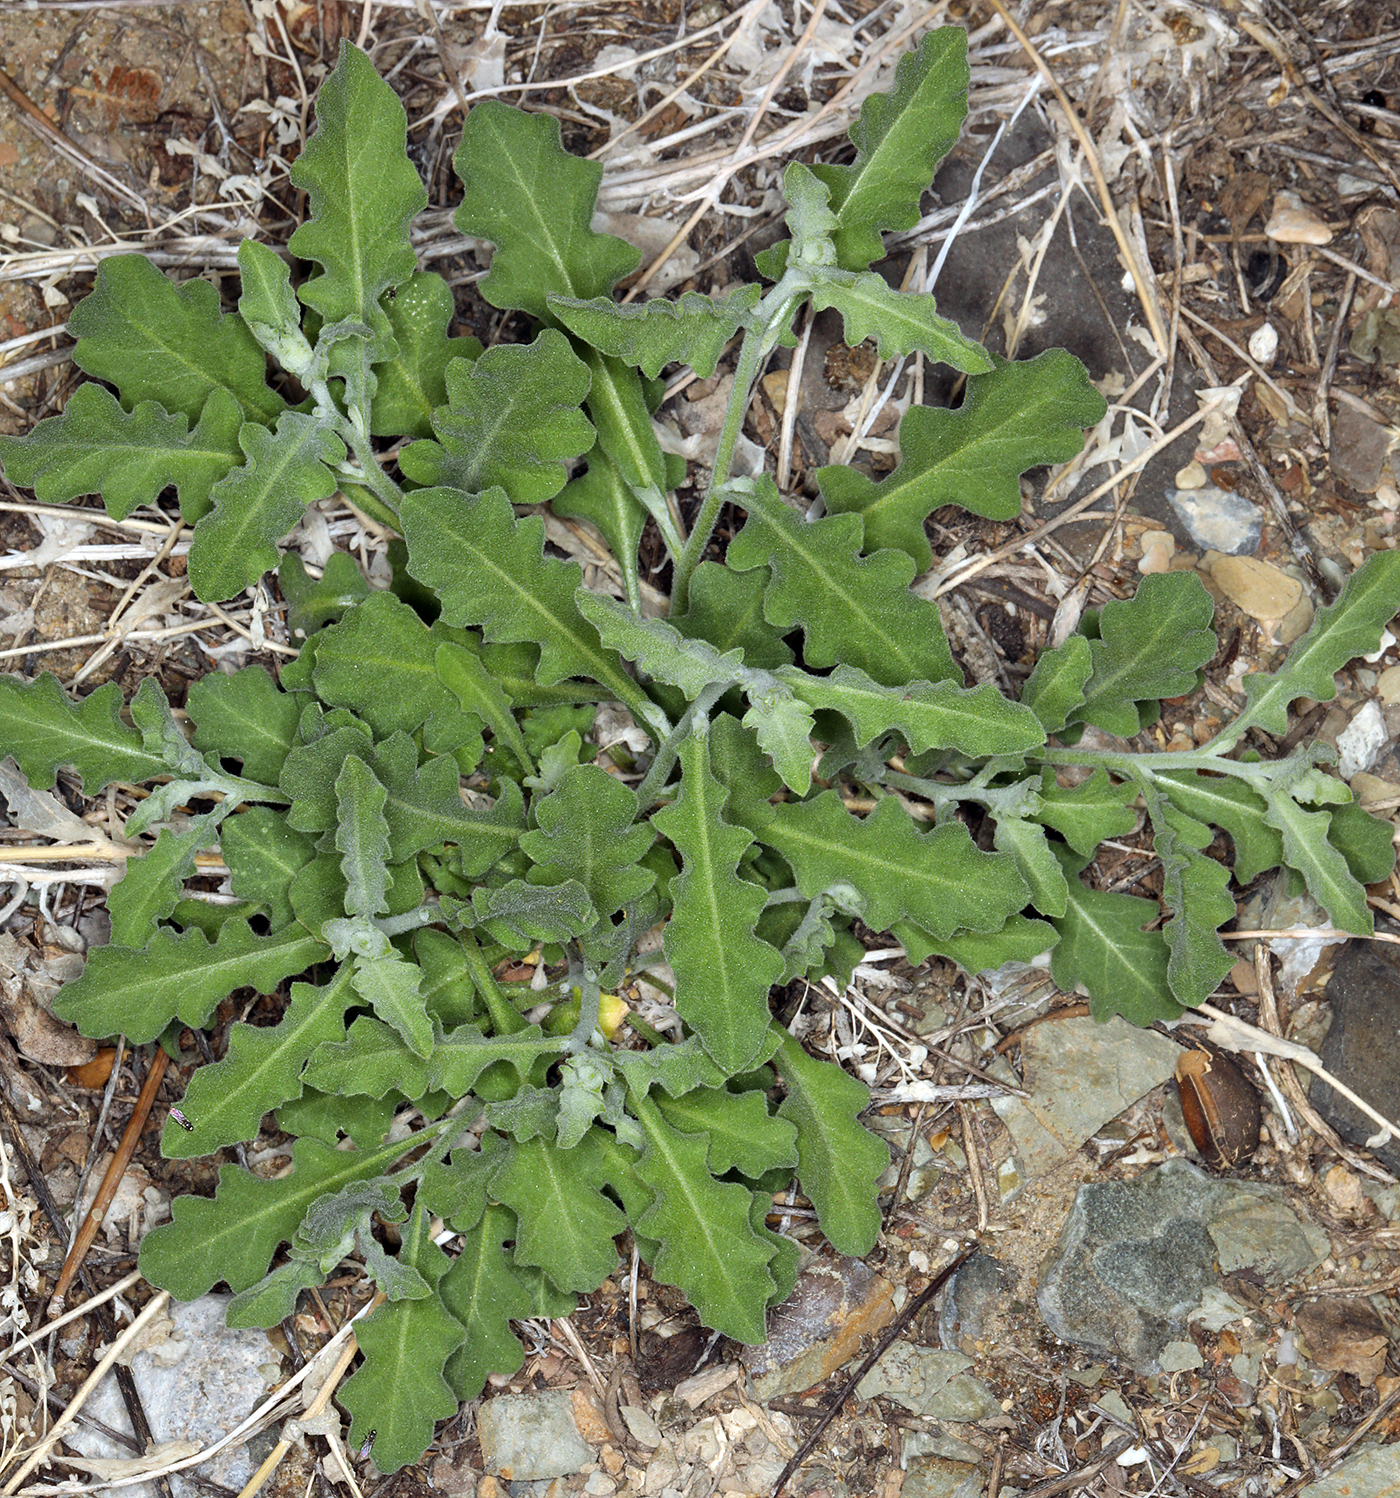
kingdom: Plantae
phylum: Tracheophyta
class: Magnoliopsida
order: Brassicales
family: Brassicaceae
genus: Halimolobos
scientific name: Halimolobos jaegeri
